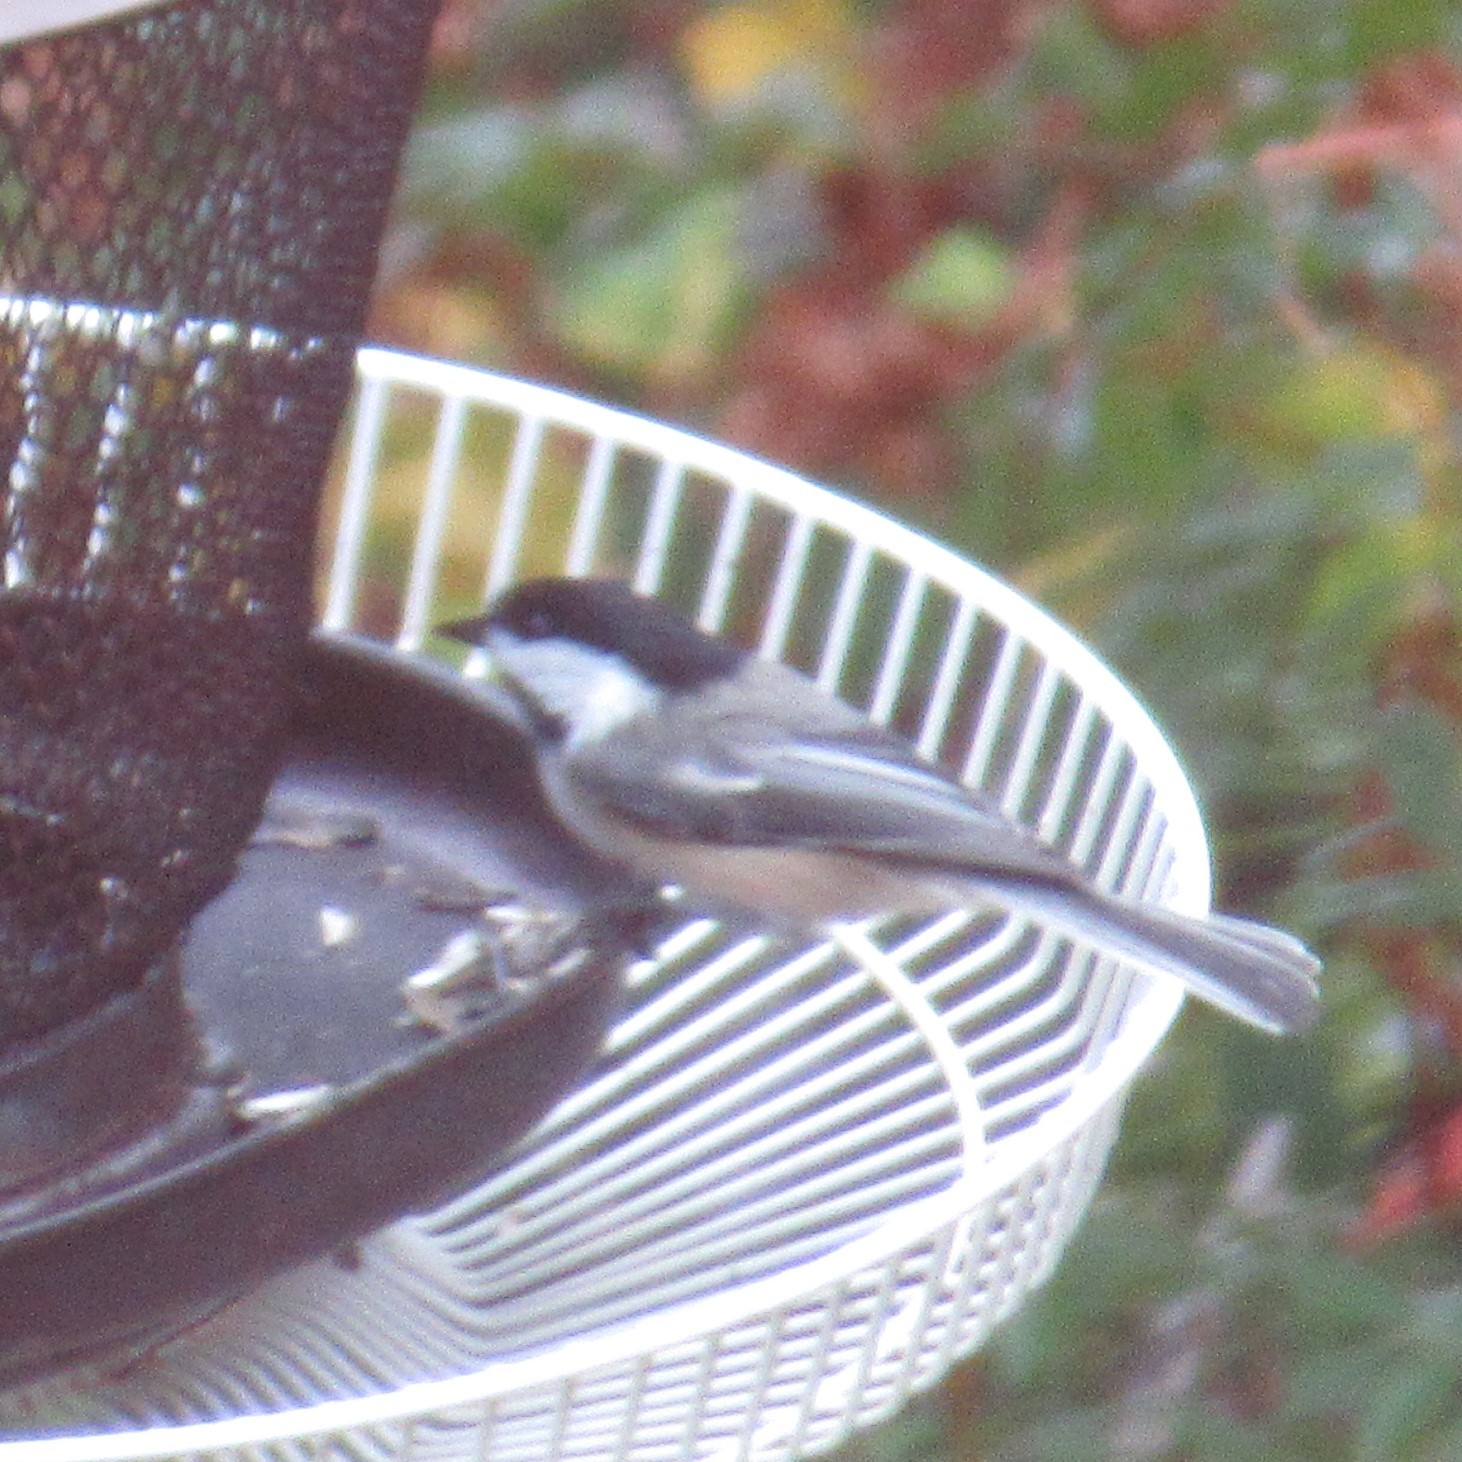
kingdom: Animalia
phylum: Chordata
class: Aves
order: Passeriformes
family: Paridae
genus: Poecile
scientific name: Poecile atricapillus
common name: Black-capped chickadee
